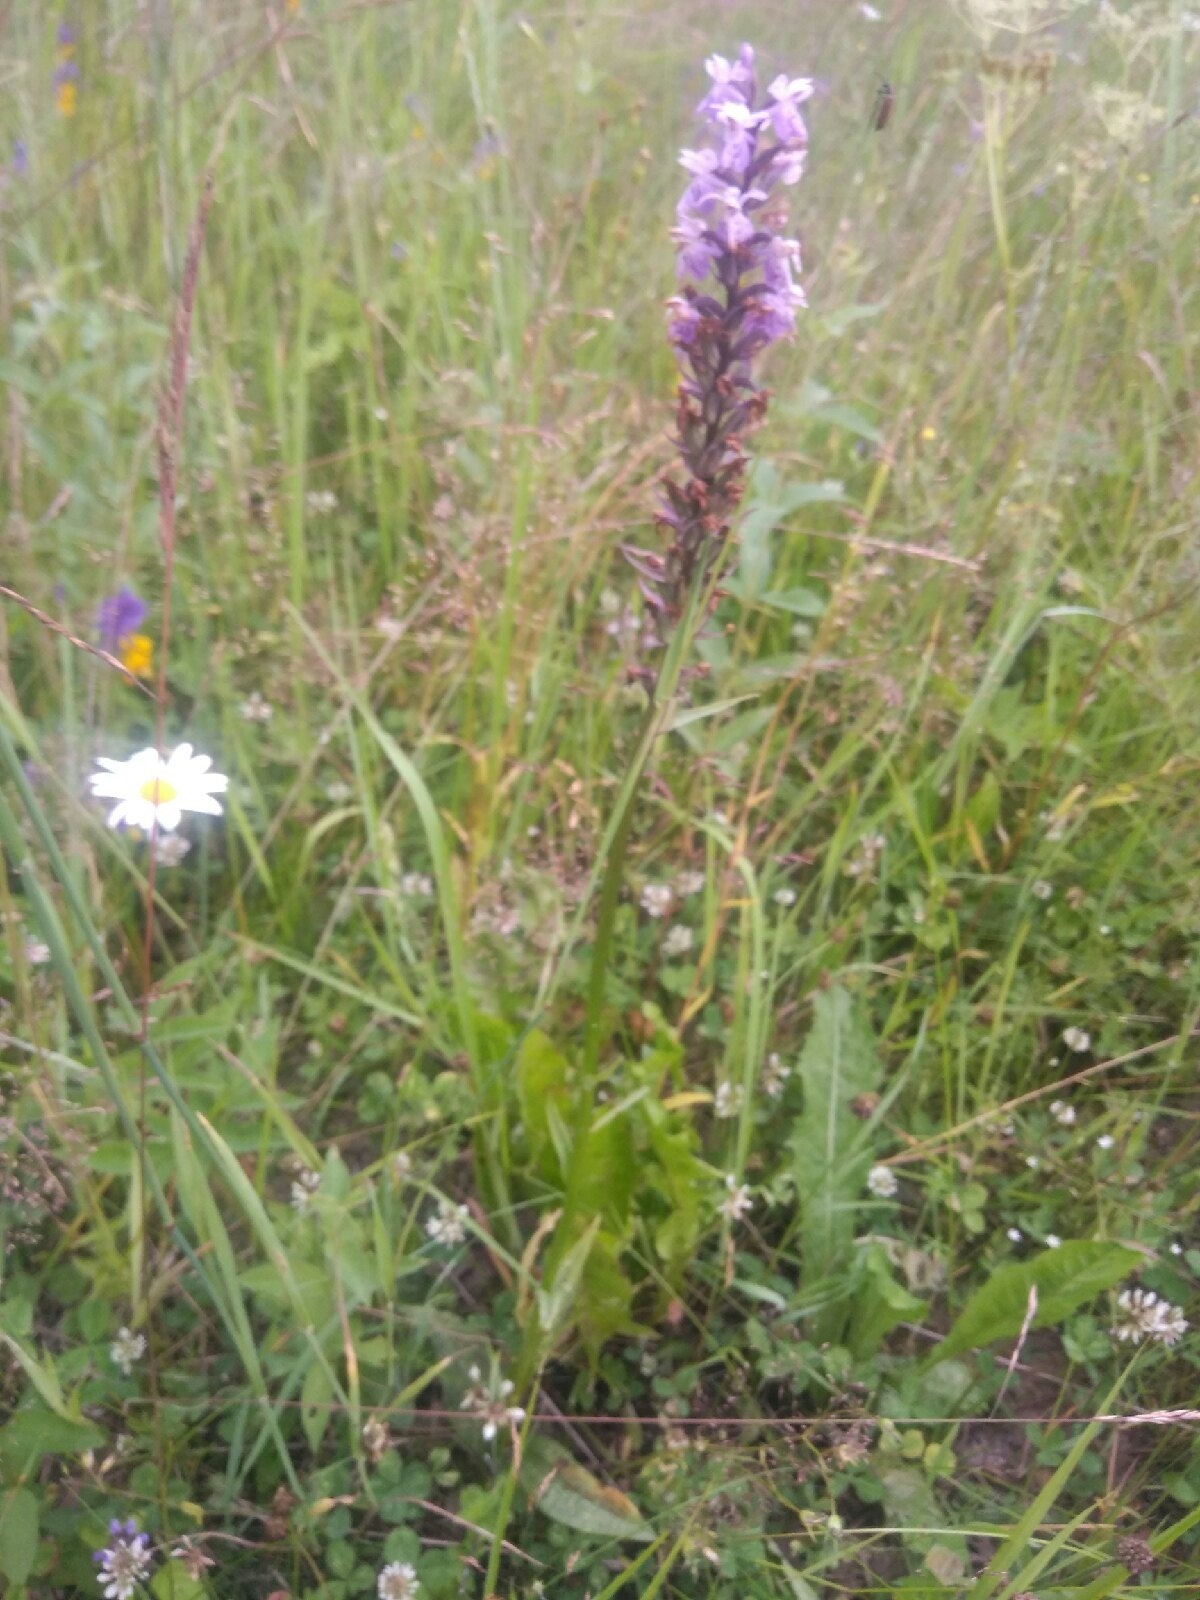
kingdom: Plantae
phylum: Tracheophyta
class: Liliopsida
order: Asparagales
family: Orchidaceae
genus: Dactylorhiza
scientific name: Dactylorhiza maculata
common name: Heath spotted-orchid
